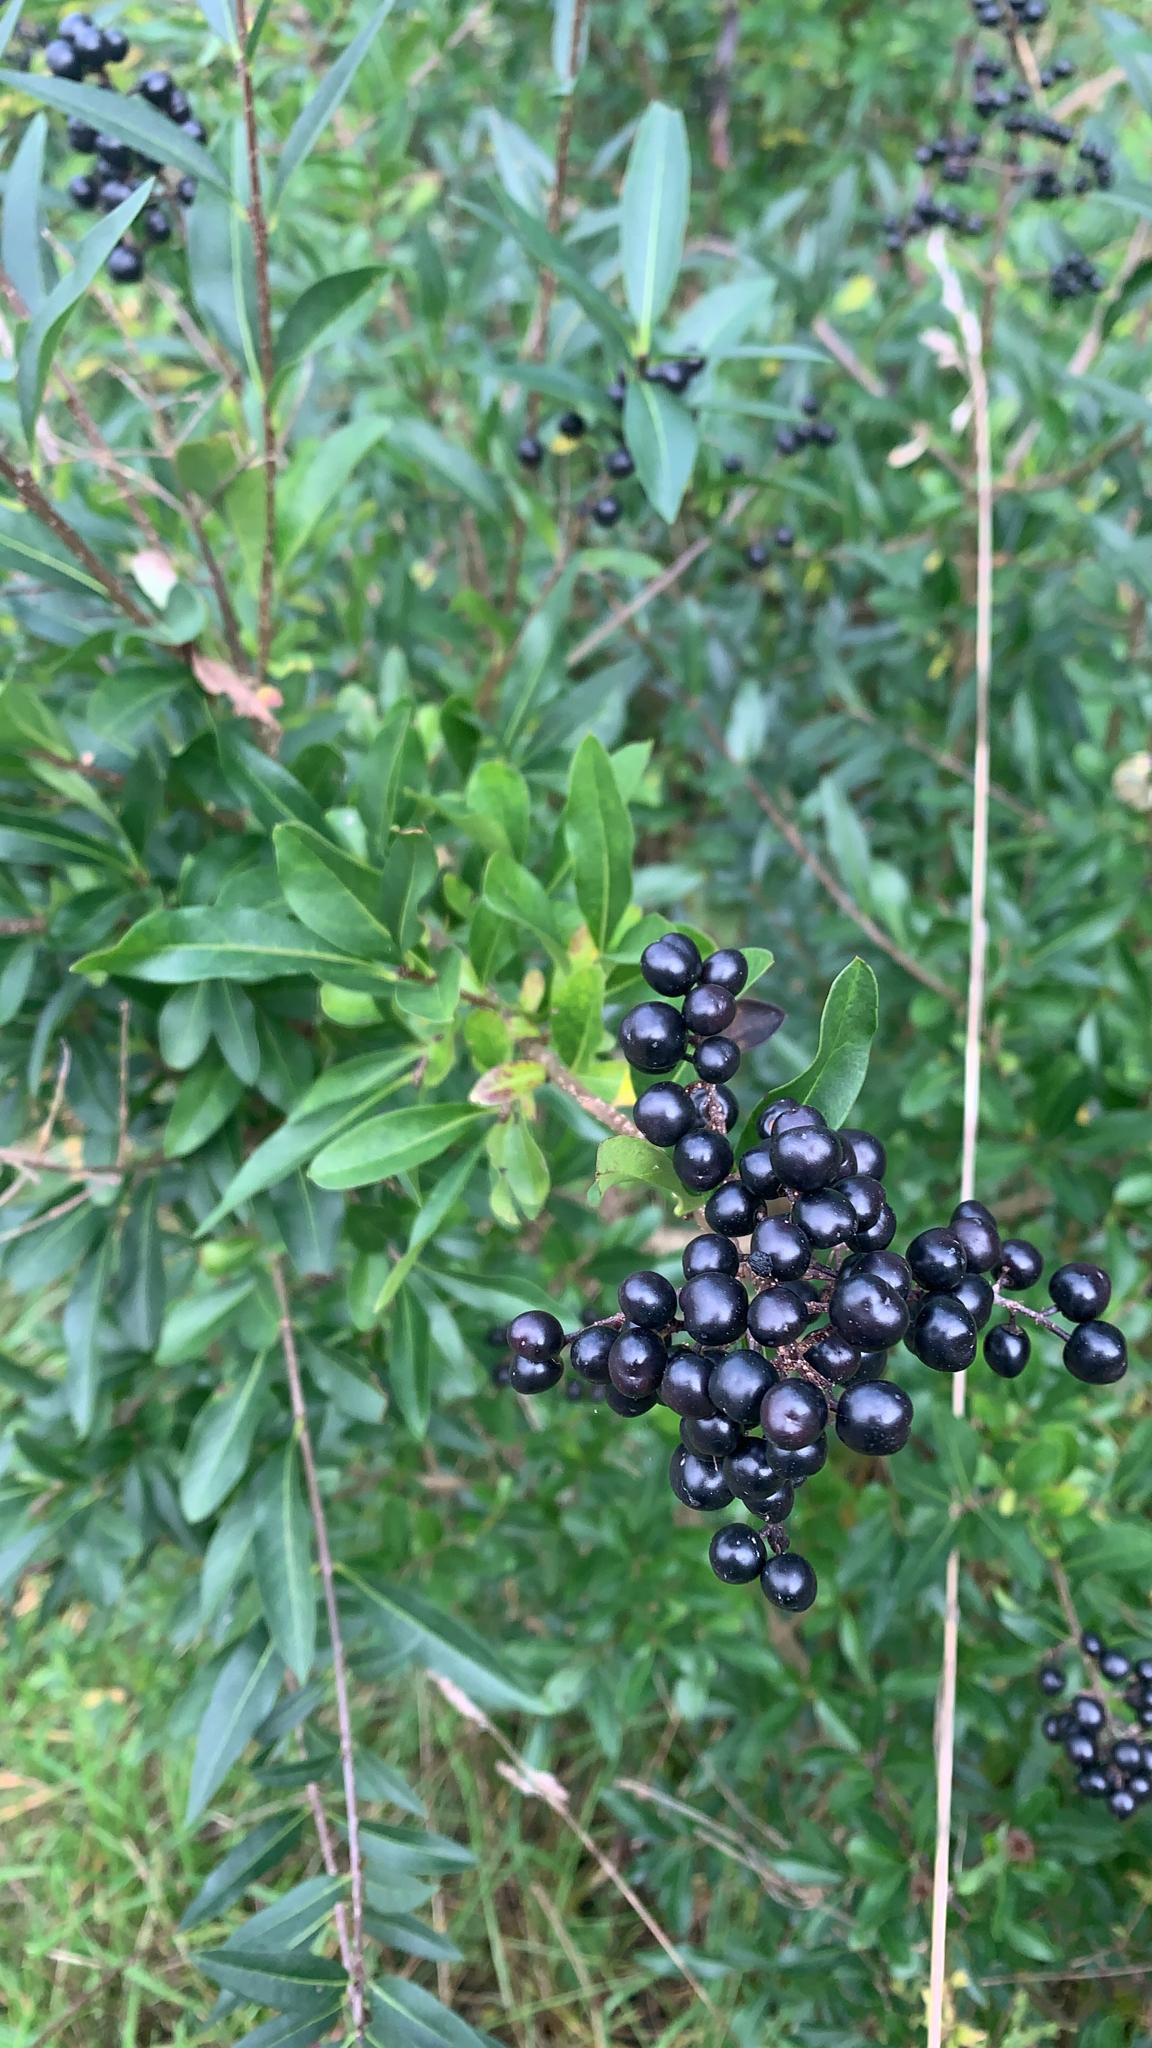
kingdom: Plantae
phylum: Tracheophyta
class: Magnoliopsida
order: Lamiales
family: Oleaceae
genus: Ligustrum
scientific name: Ligustrum vulgare
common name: Wild privet
